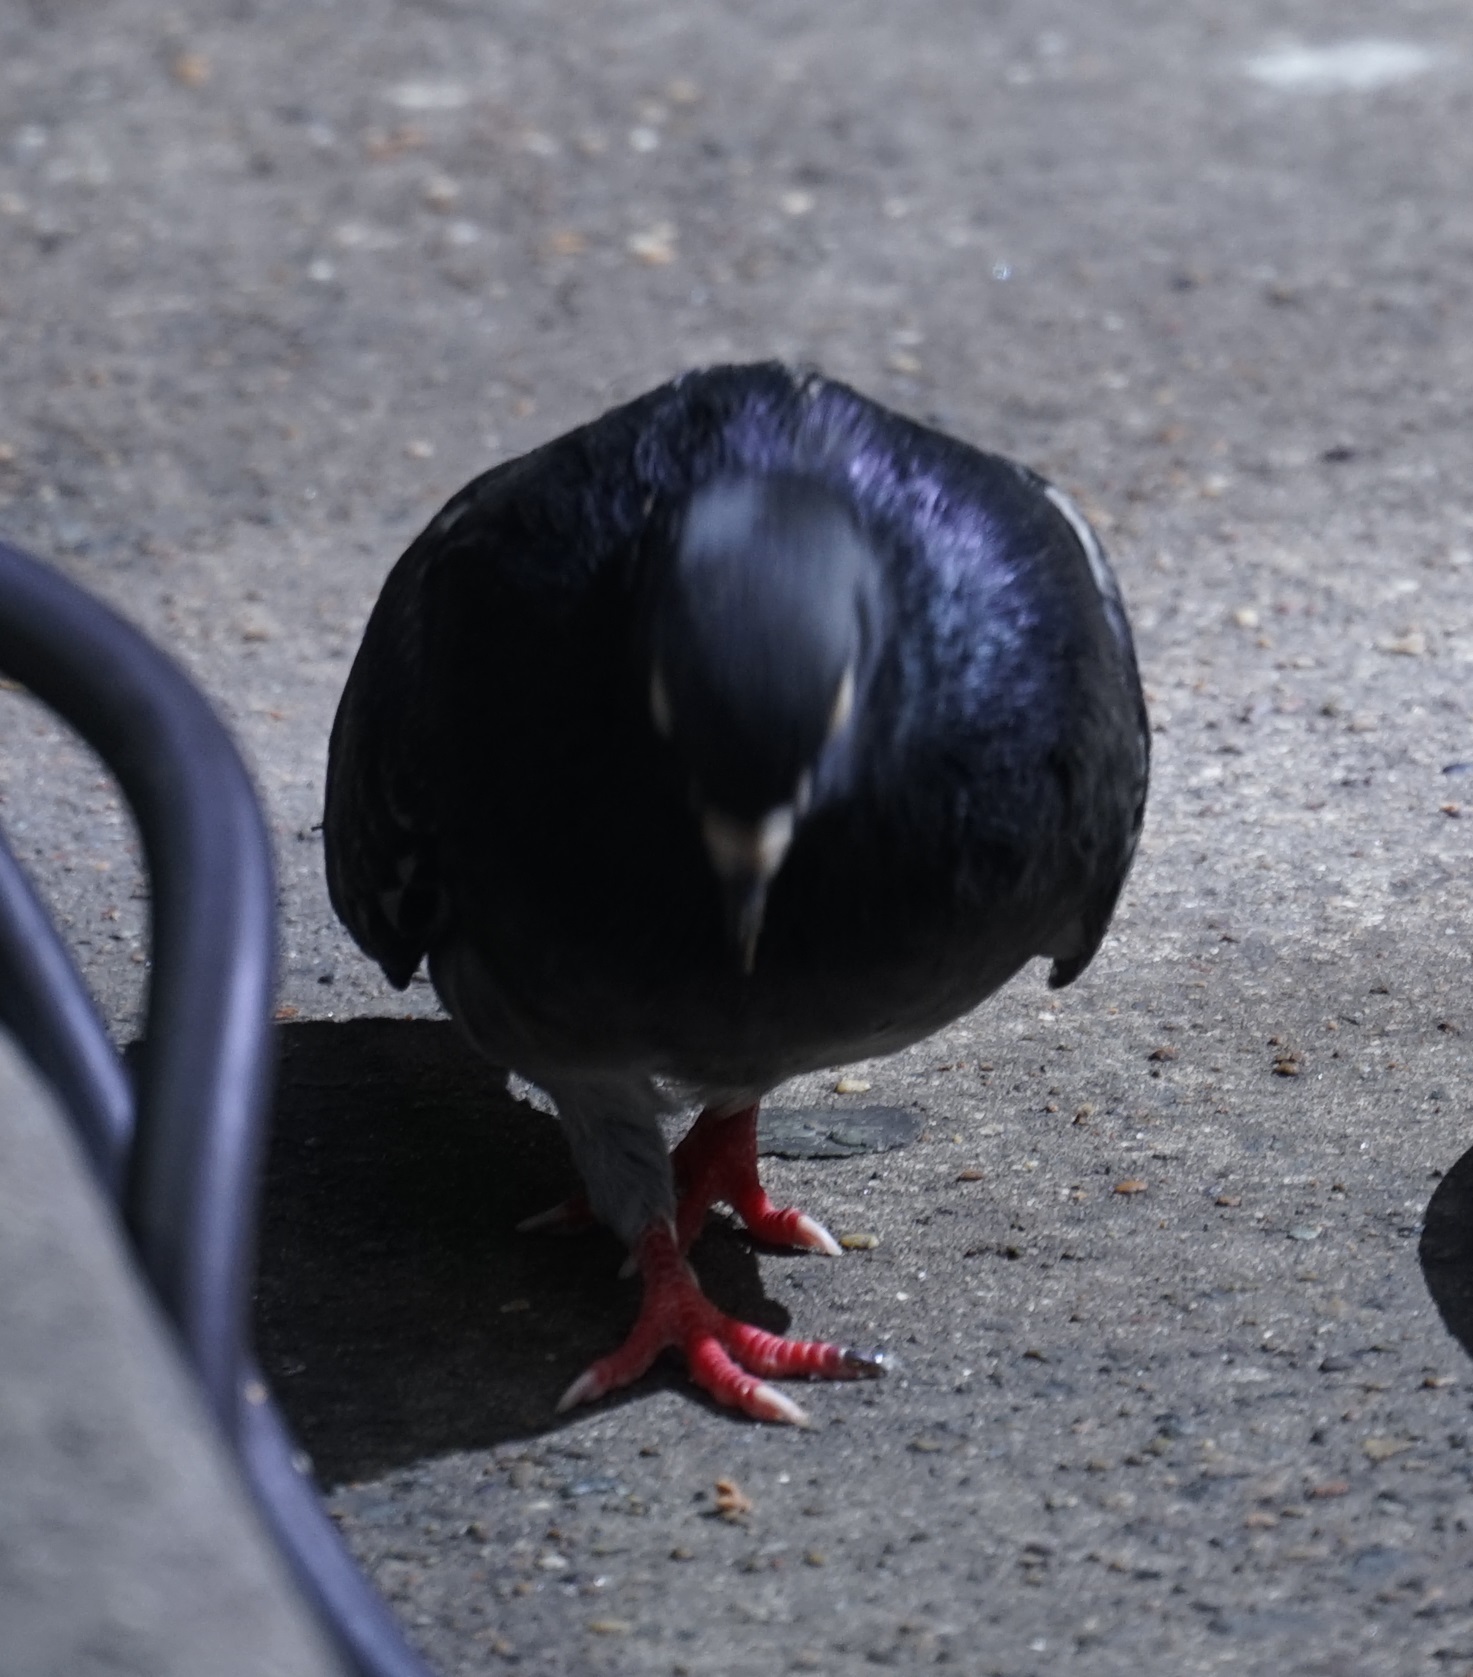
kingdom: Animalia
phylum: Chordata
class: Aves
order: Columbiformes
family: Columbidae
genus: Columba
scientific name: Columba livia
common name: Rock pigeon
